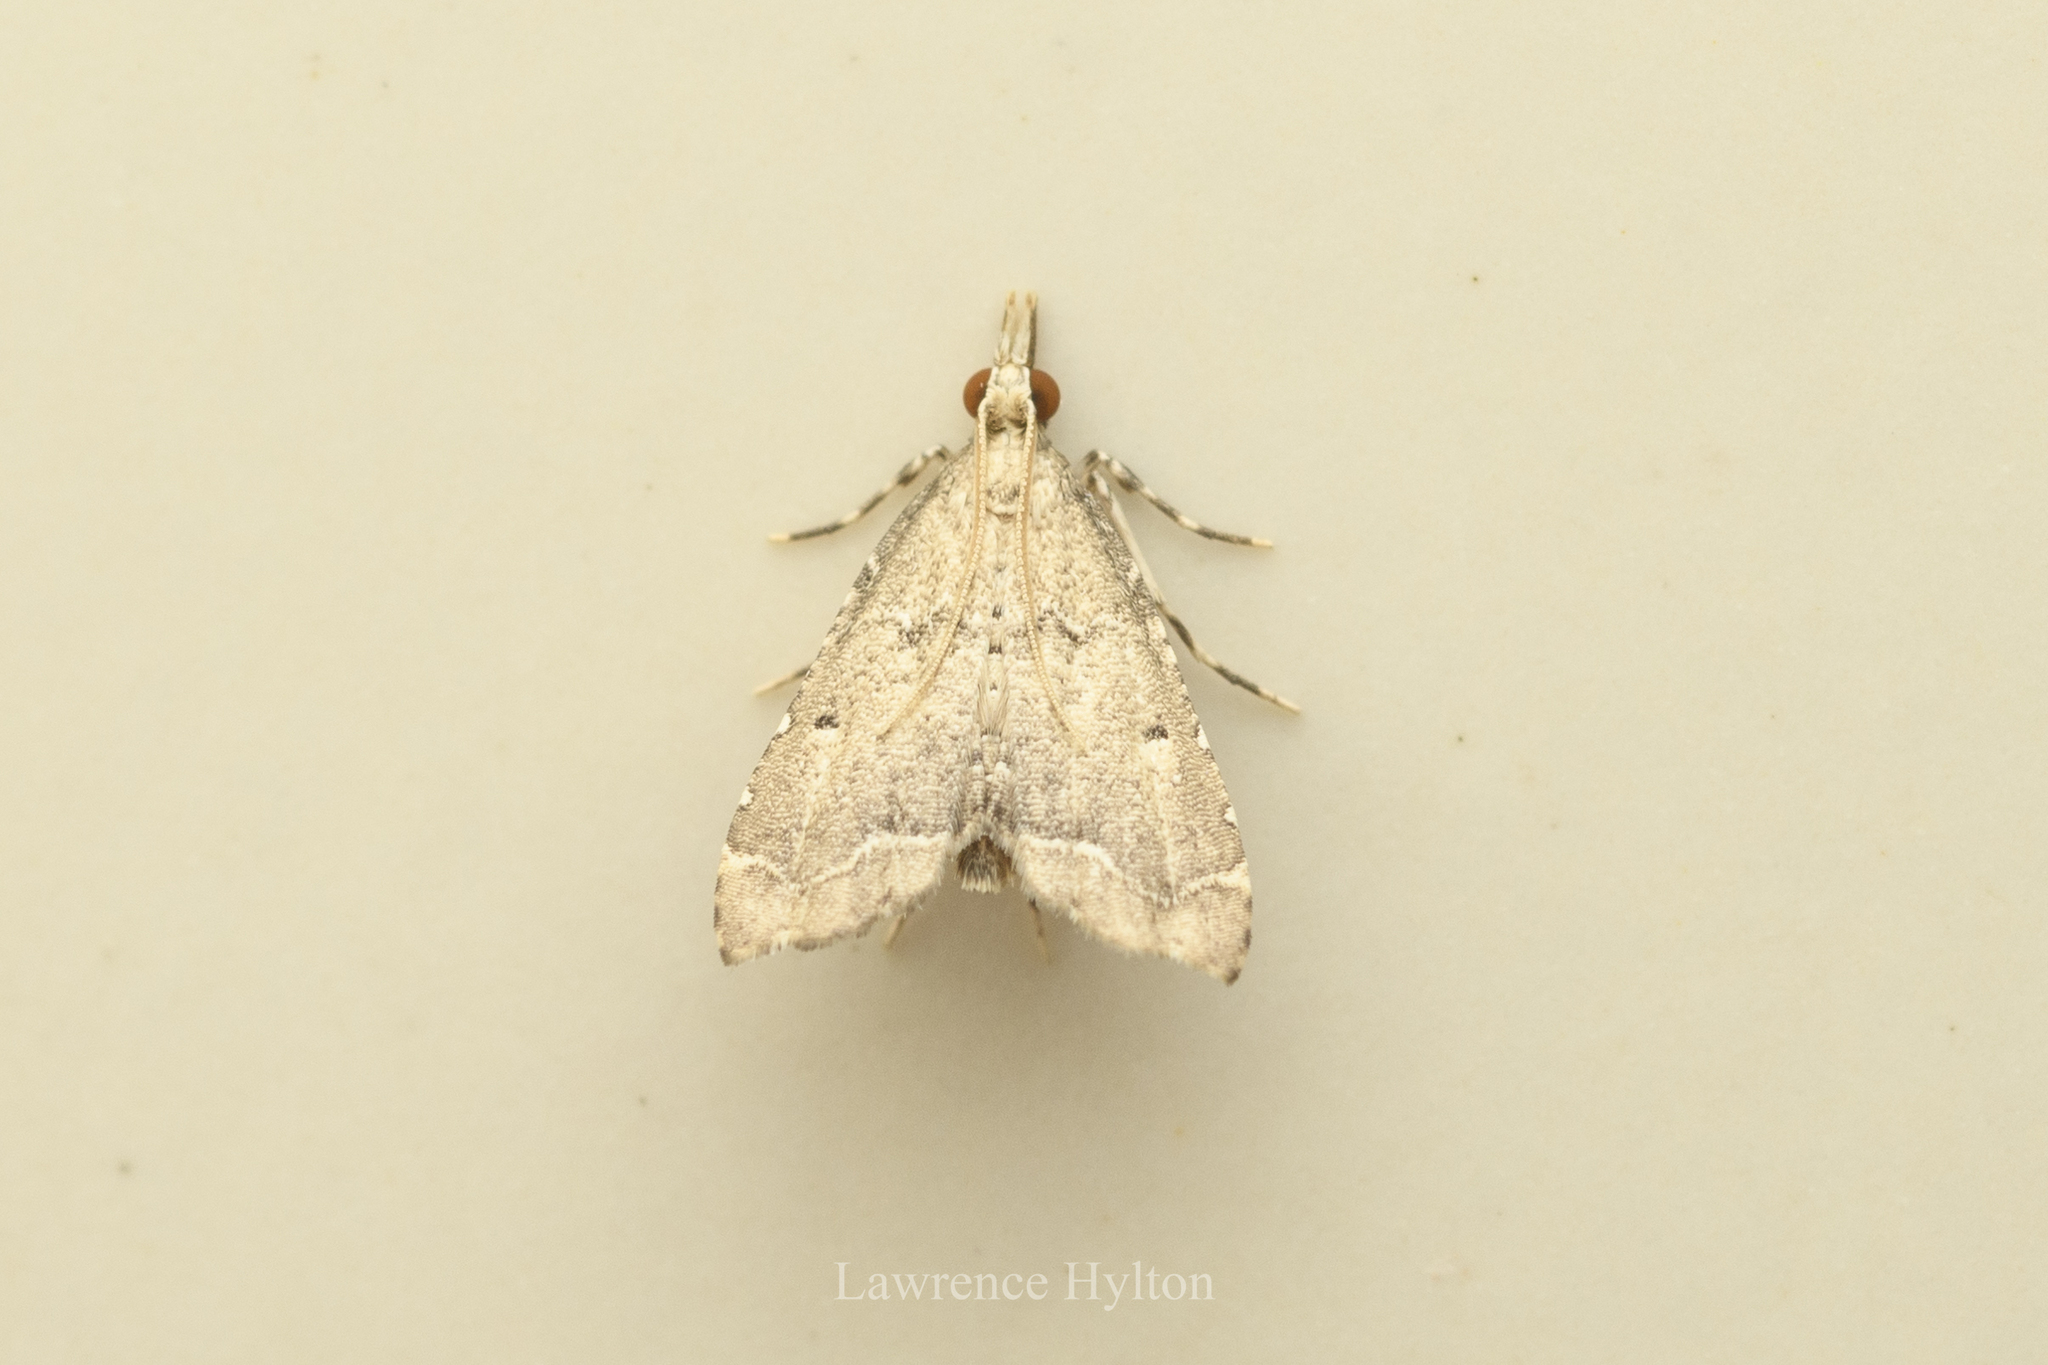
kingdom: Animalia
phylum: Arthropoda
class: Insecta
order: Lepidoptera
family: Crambidae
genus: Diplopseustis
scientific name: Diplopseustis perieresalis
